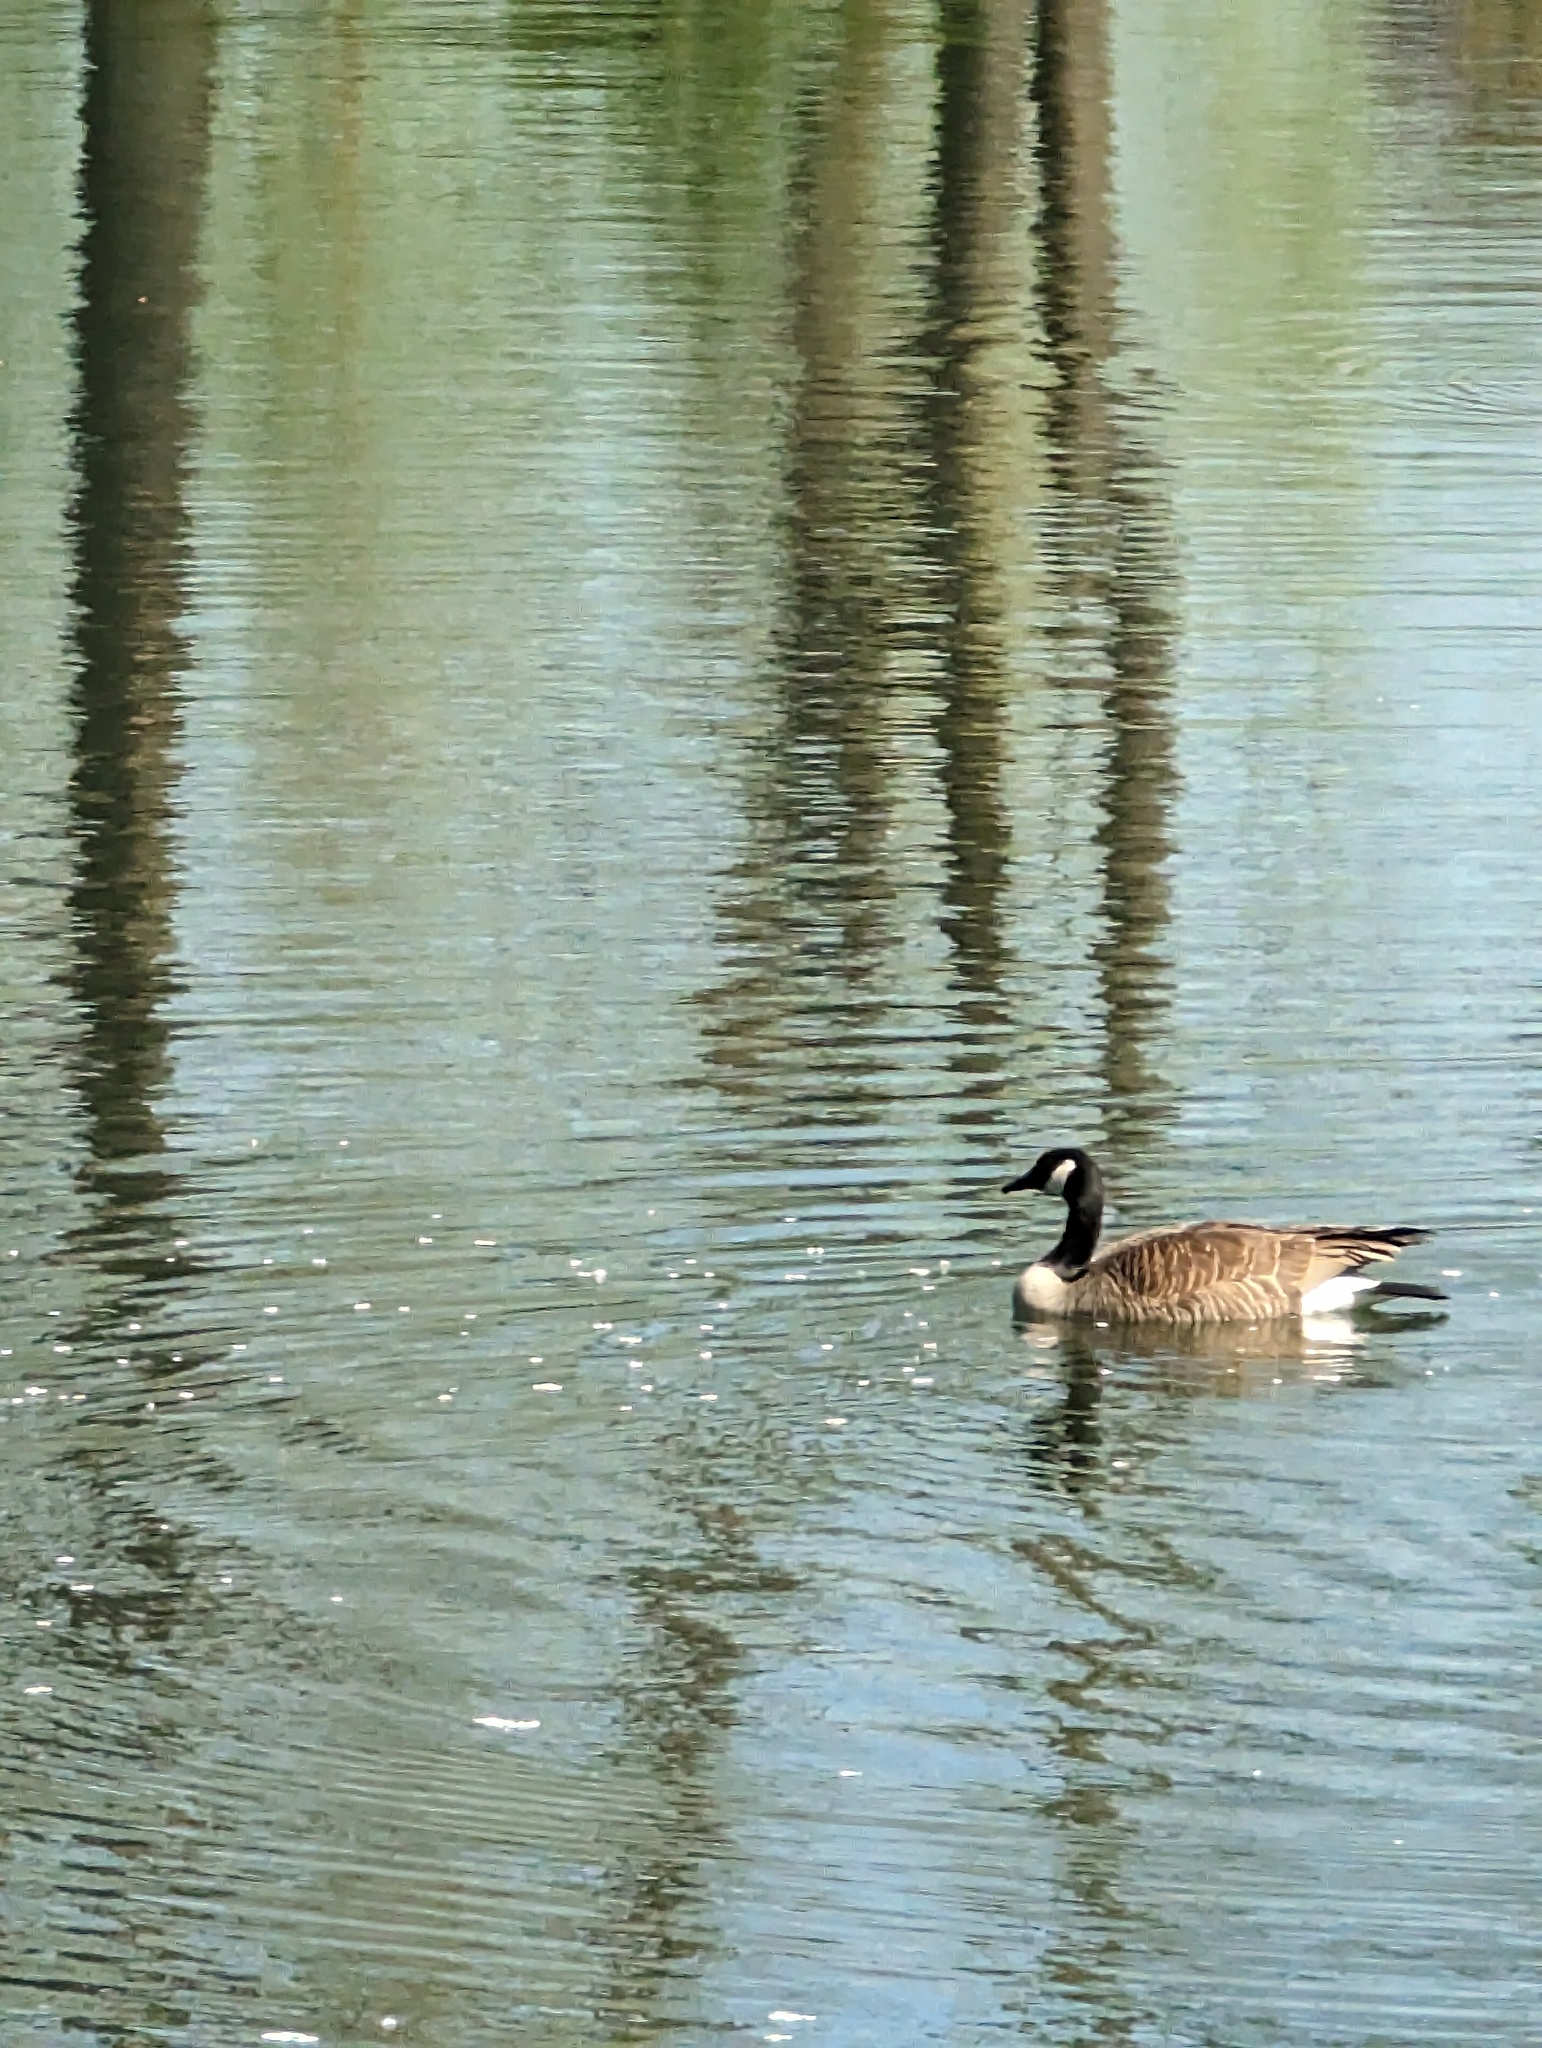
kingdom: Animalia
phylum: Chordata
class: Aves
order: Anseriformes
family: Anatidae
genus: Branta
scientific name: Branta canadensis
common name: Canada goose
